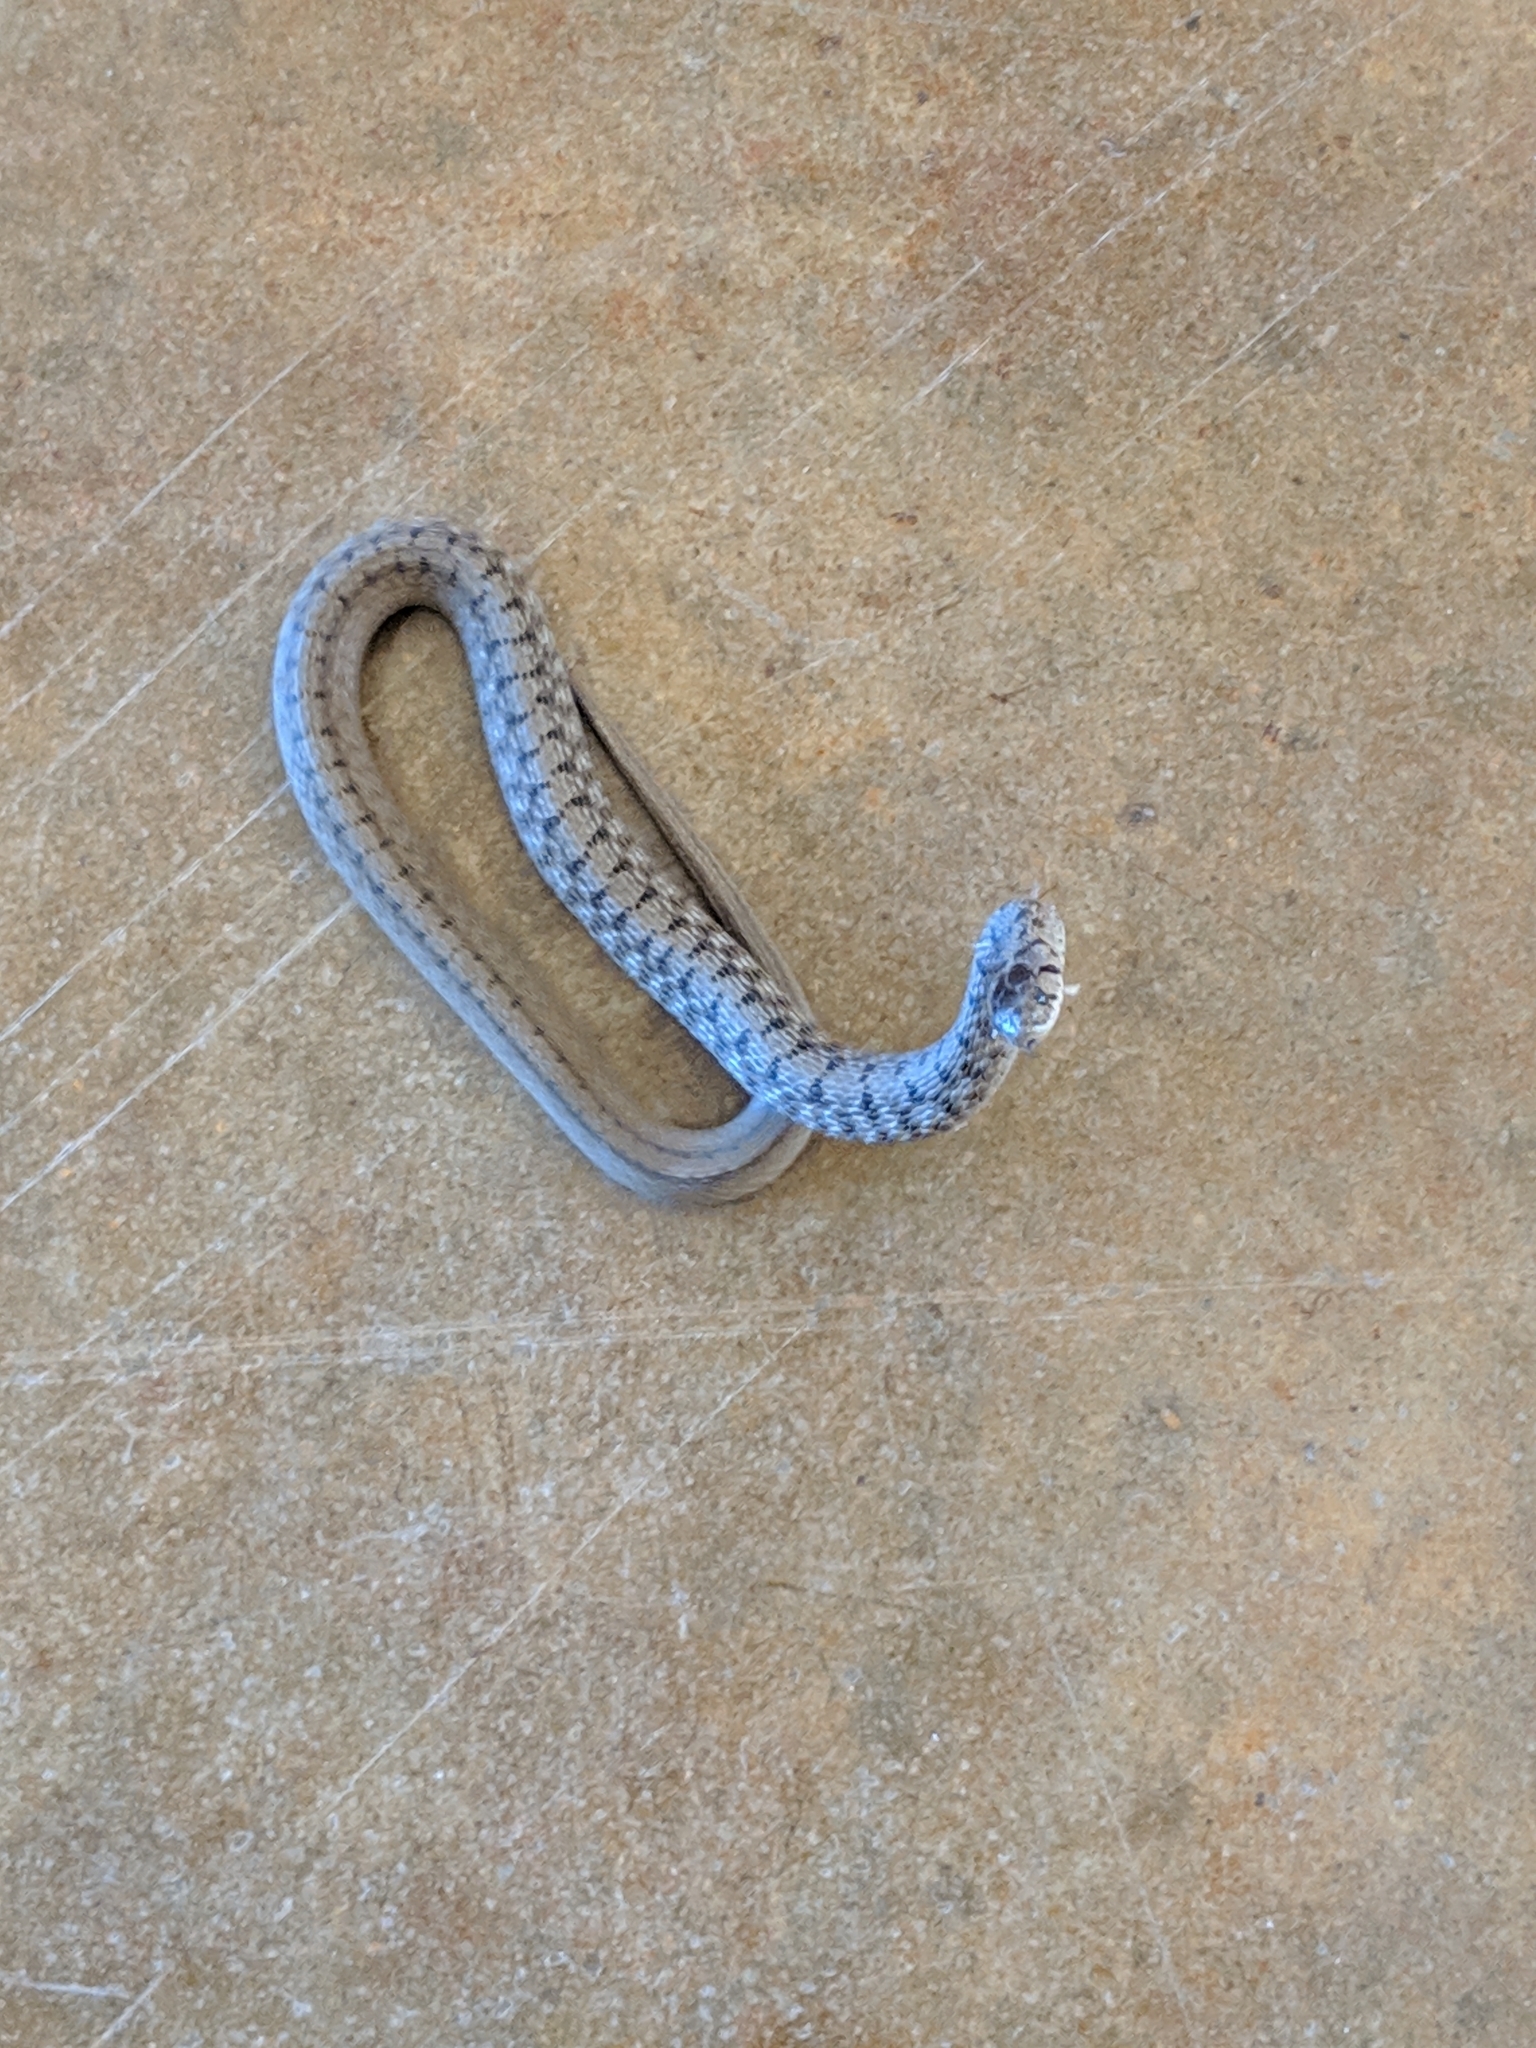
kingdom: Animalia
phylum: Chordata
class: Squamata
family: Colubridae
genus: Storeria
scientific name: Storeria dekayi
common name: (dekay’s) brown snake
